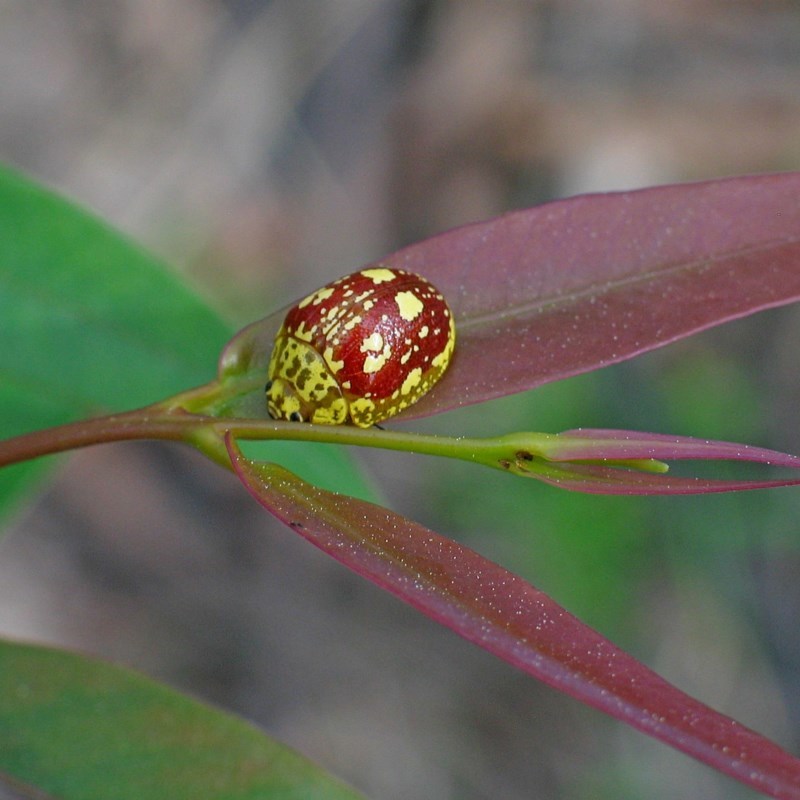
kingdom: Animalia
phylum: Arthropoda
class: Insecta
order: Coleoptera
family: Chrysomelidae
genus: Paropsis
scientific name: Paropsis maculata
